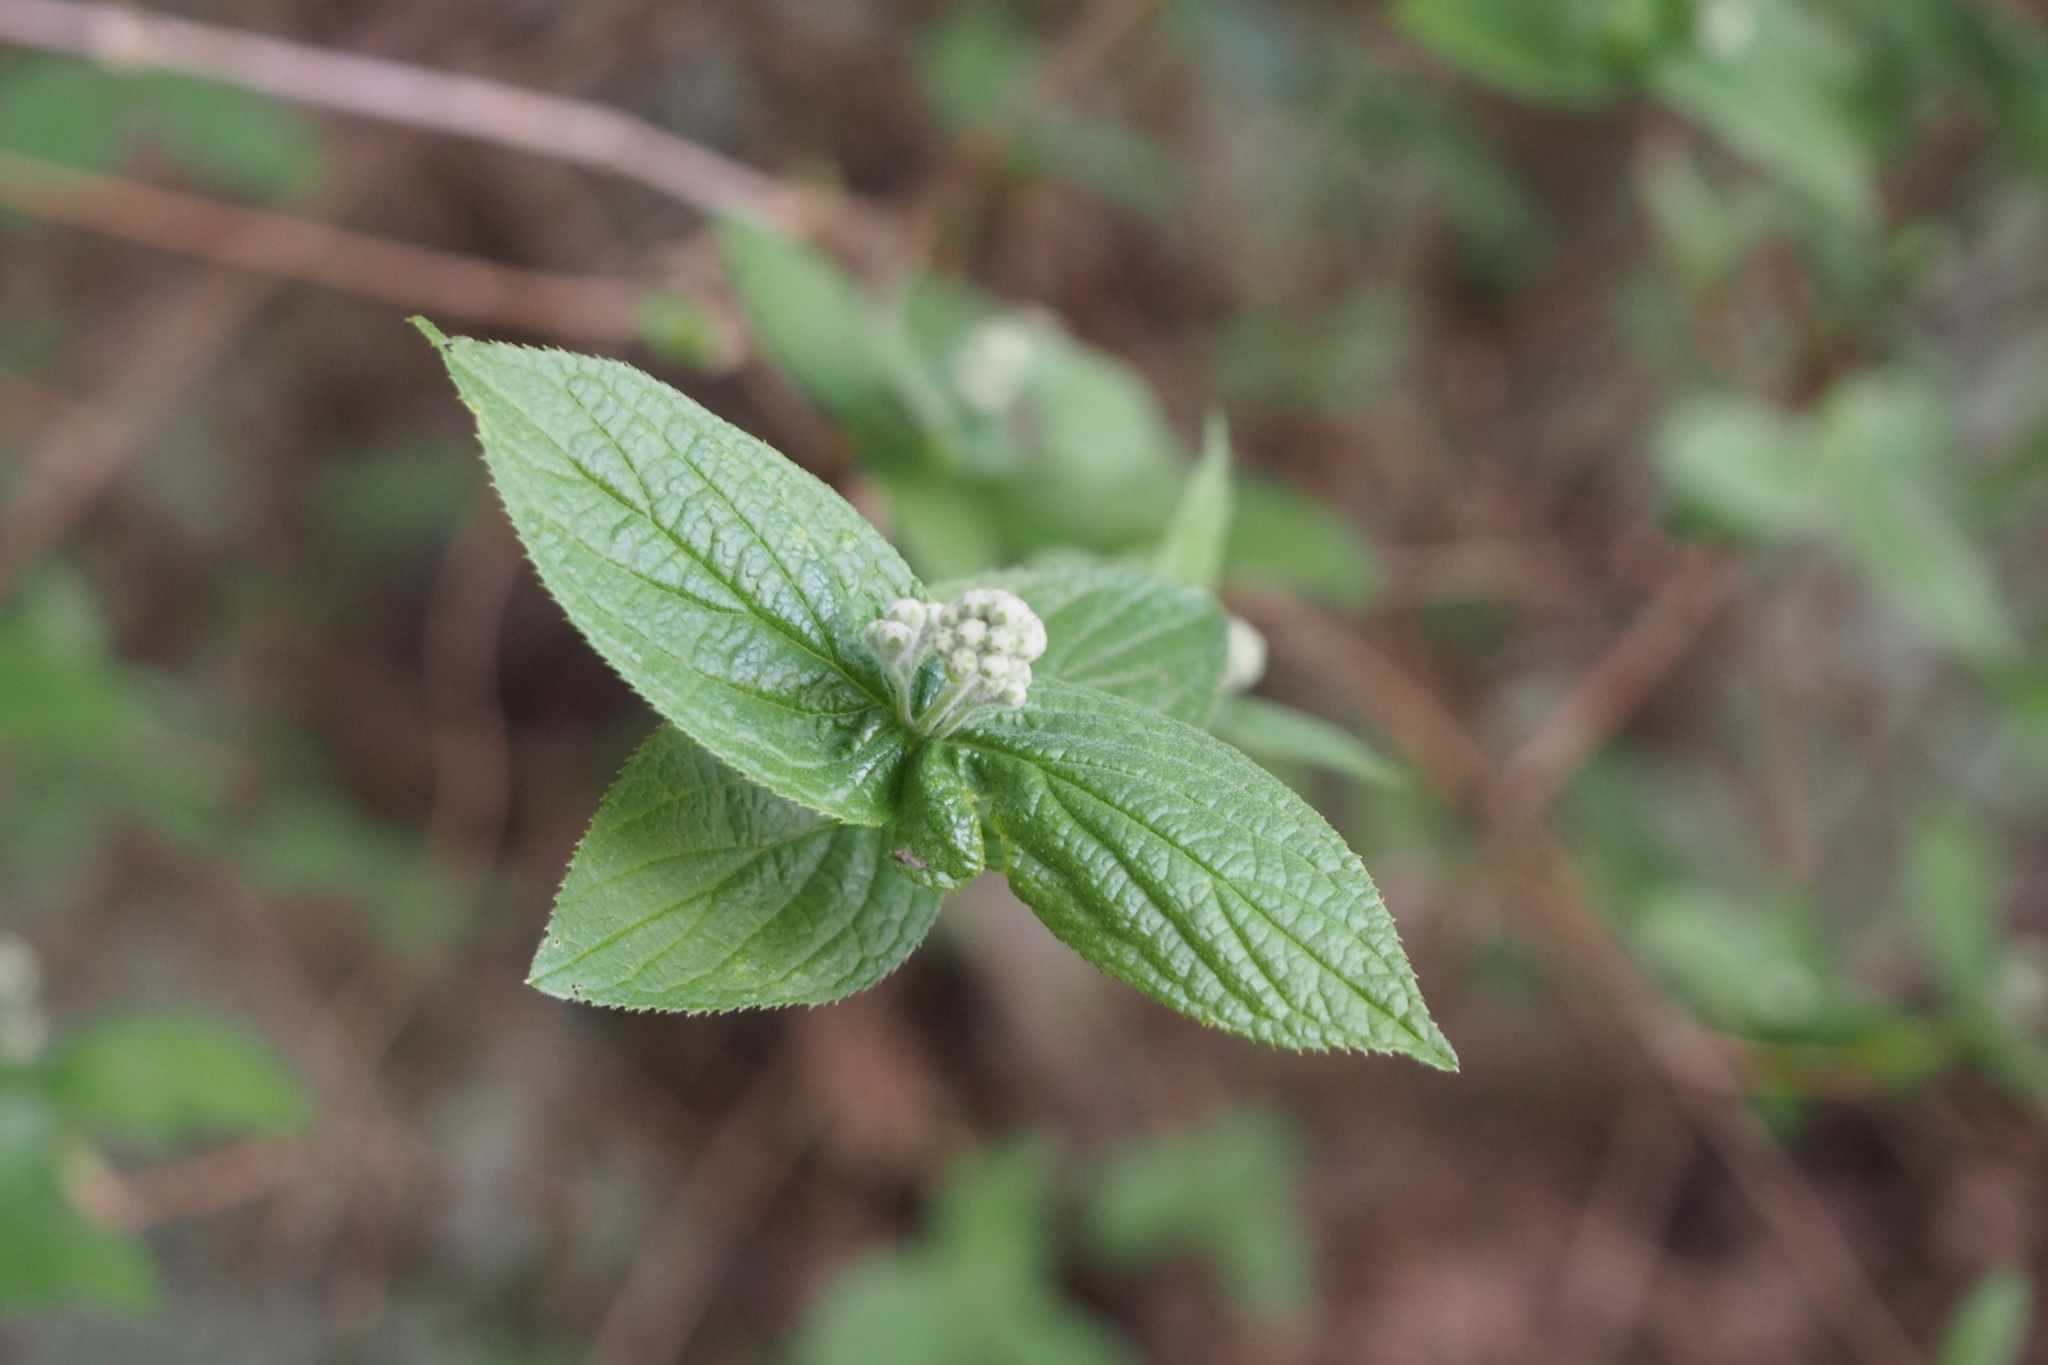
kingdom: Plantae
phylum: Tracheophyta
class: Magnoliopsida
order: Cornales
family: Hydrangeaceae
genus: Deutzia
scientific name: Deutzia scabra
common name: Deutzia
